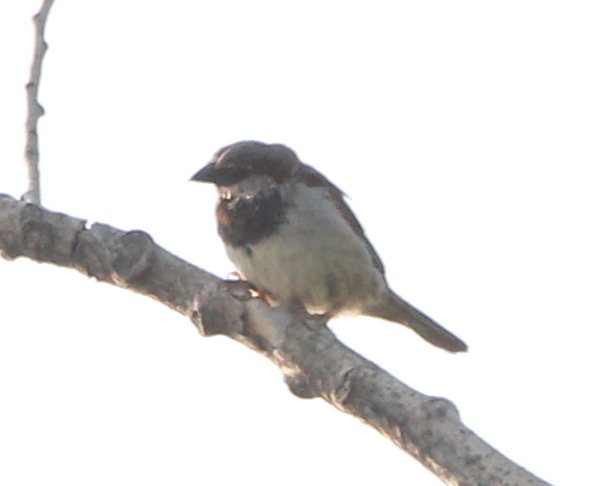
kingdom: Animalia
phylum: Chordata
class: Aves
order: Passeriformes
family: Passeridae
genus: Passer
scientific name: Passer domesticus
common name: House sparrow
